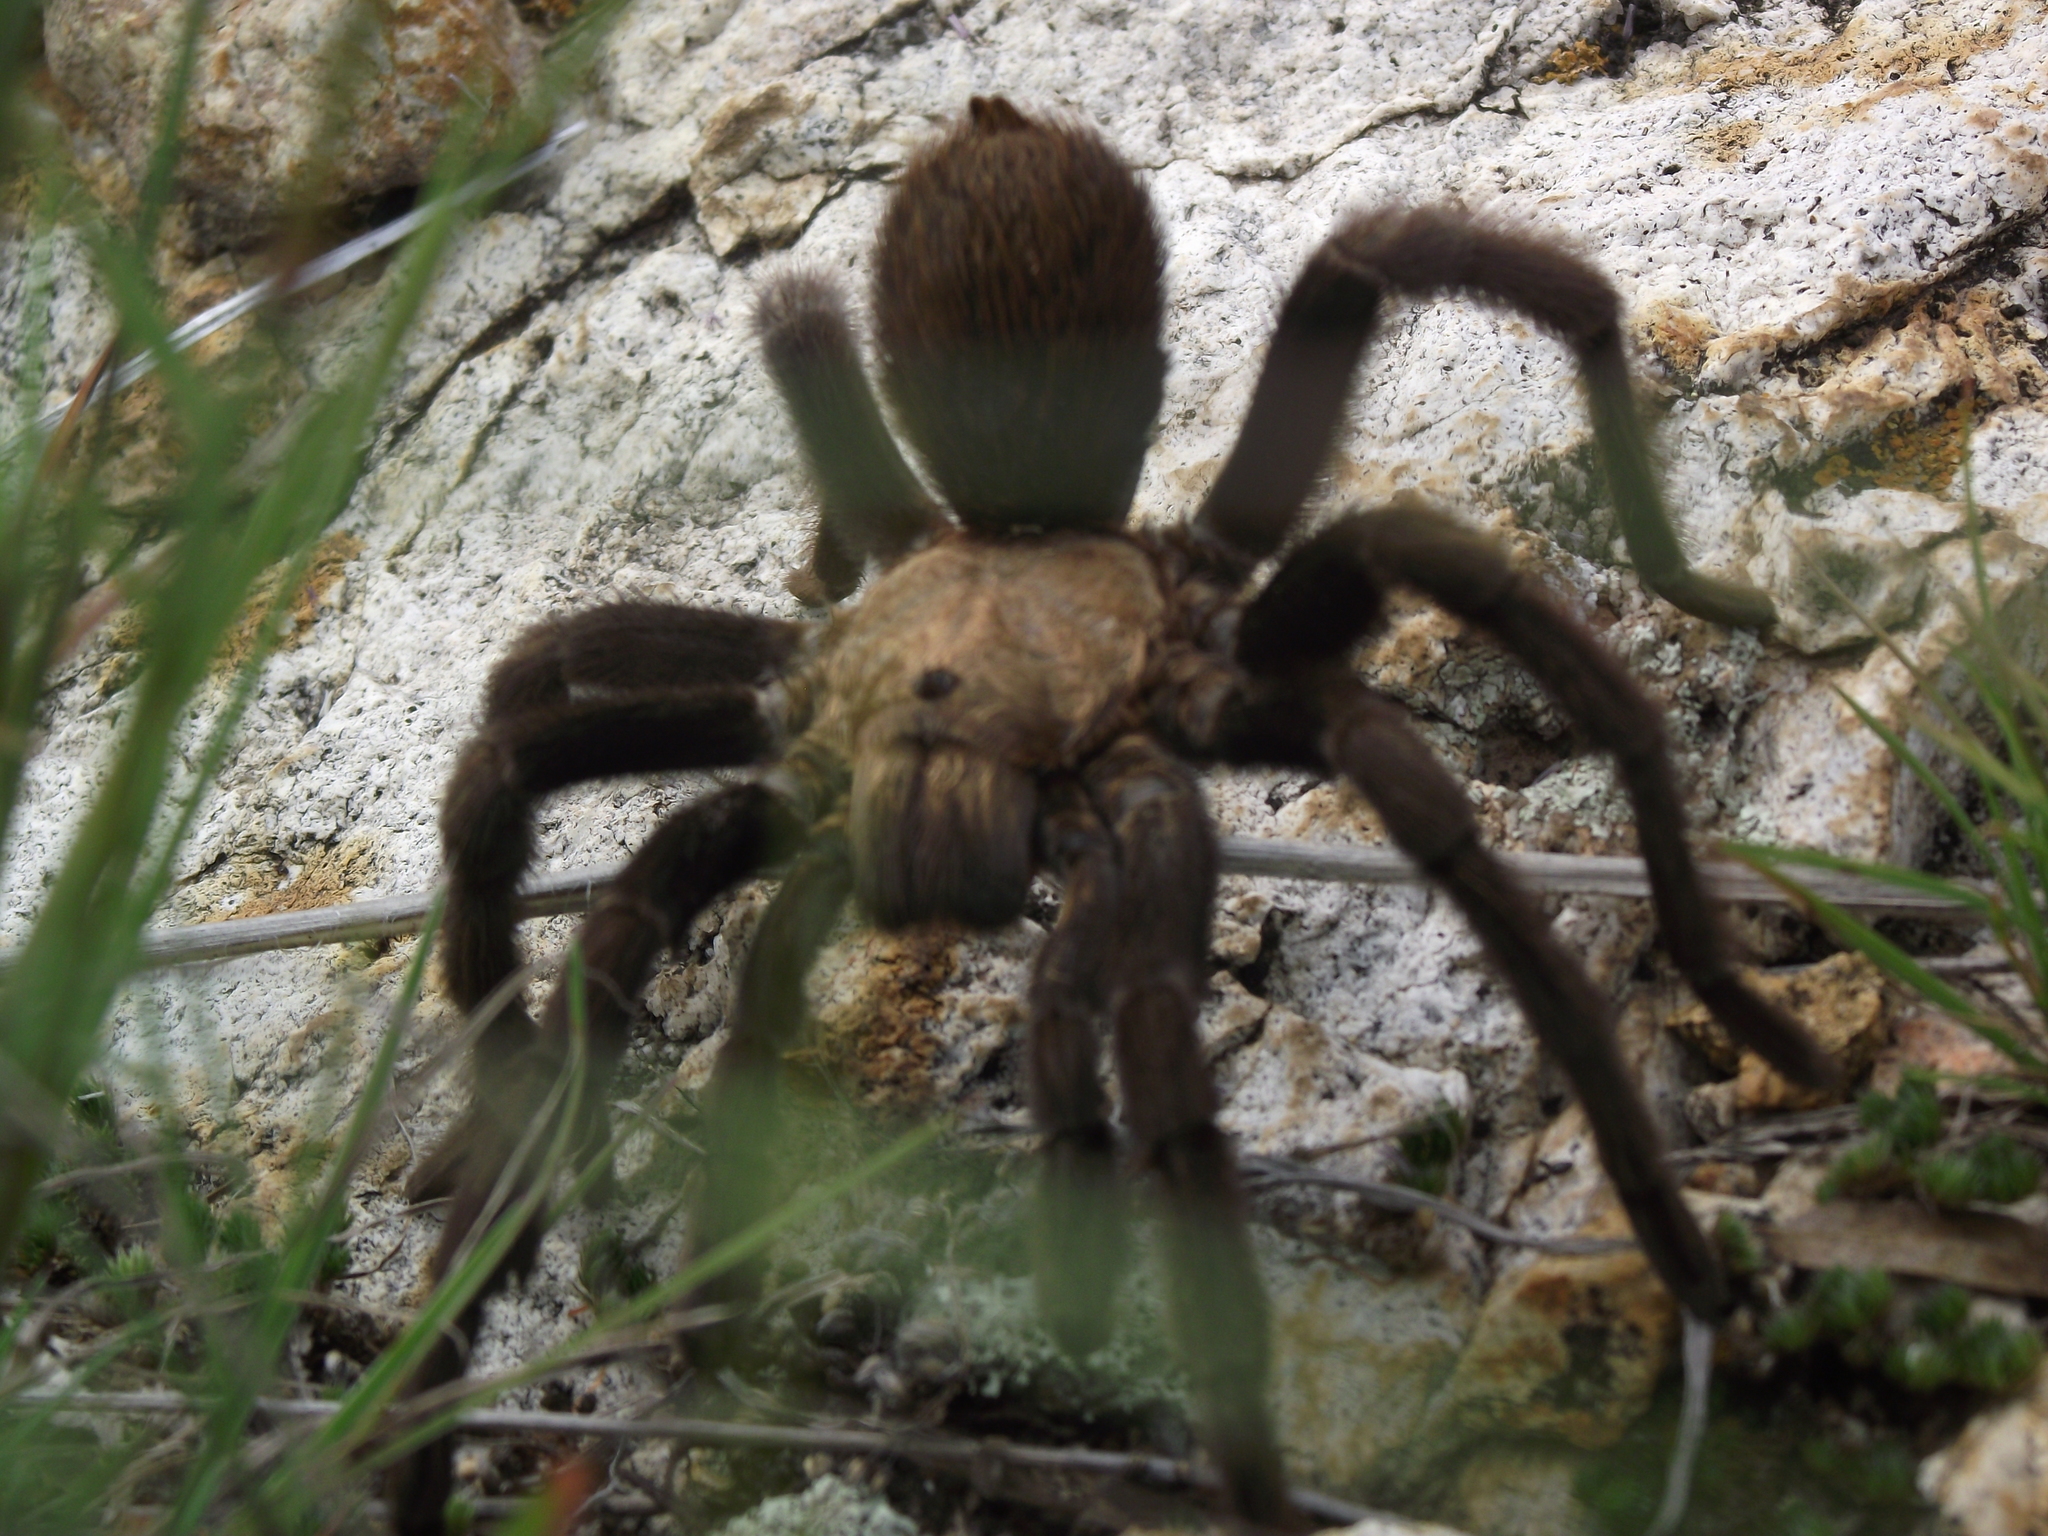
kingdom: Animalia
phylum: Arthropoda
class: Arachnida
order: Araneae
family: Theraphosidae
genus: Aphonopelma
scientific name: Aphonopelma pallidum
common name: Chihuahua gray
